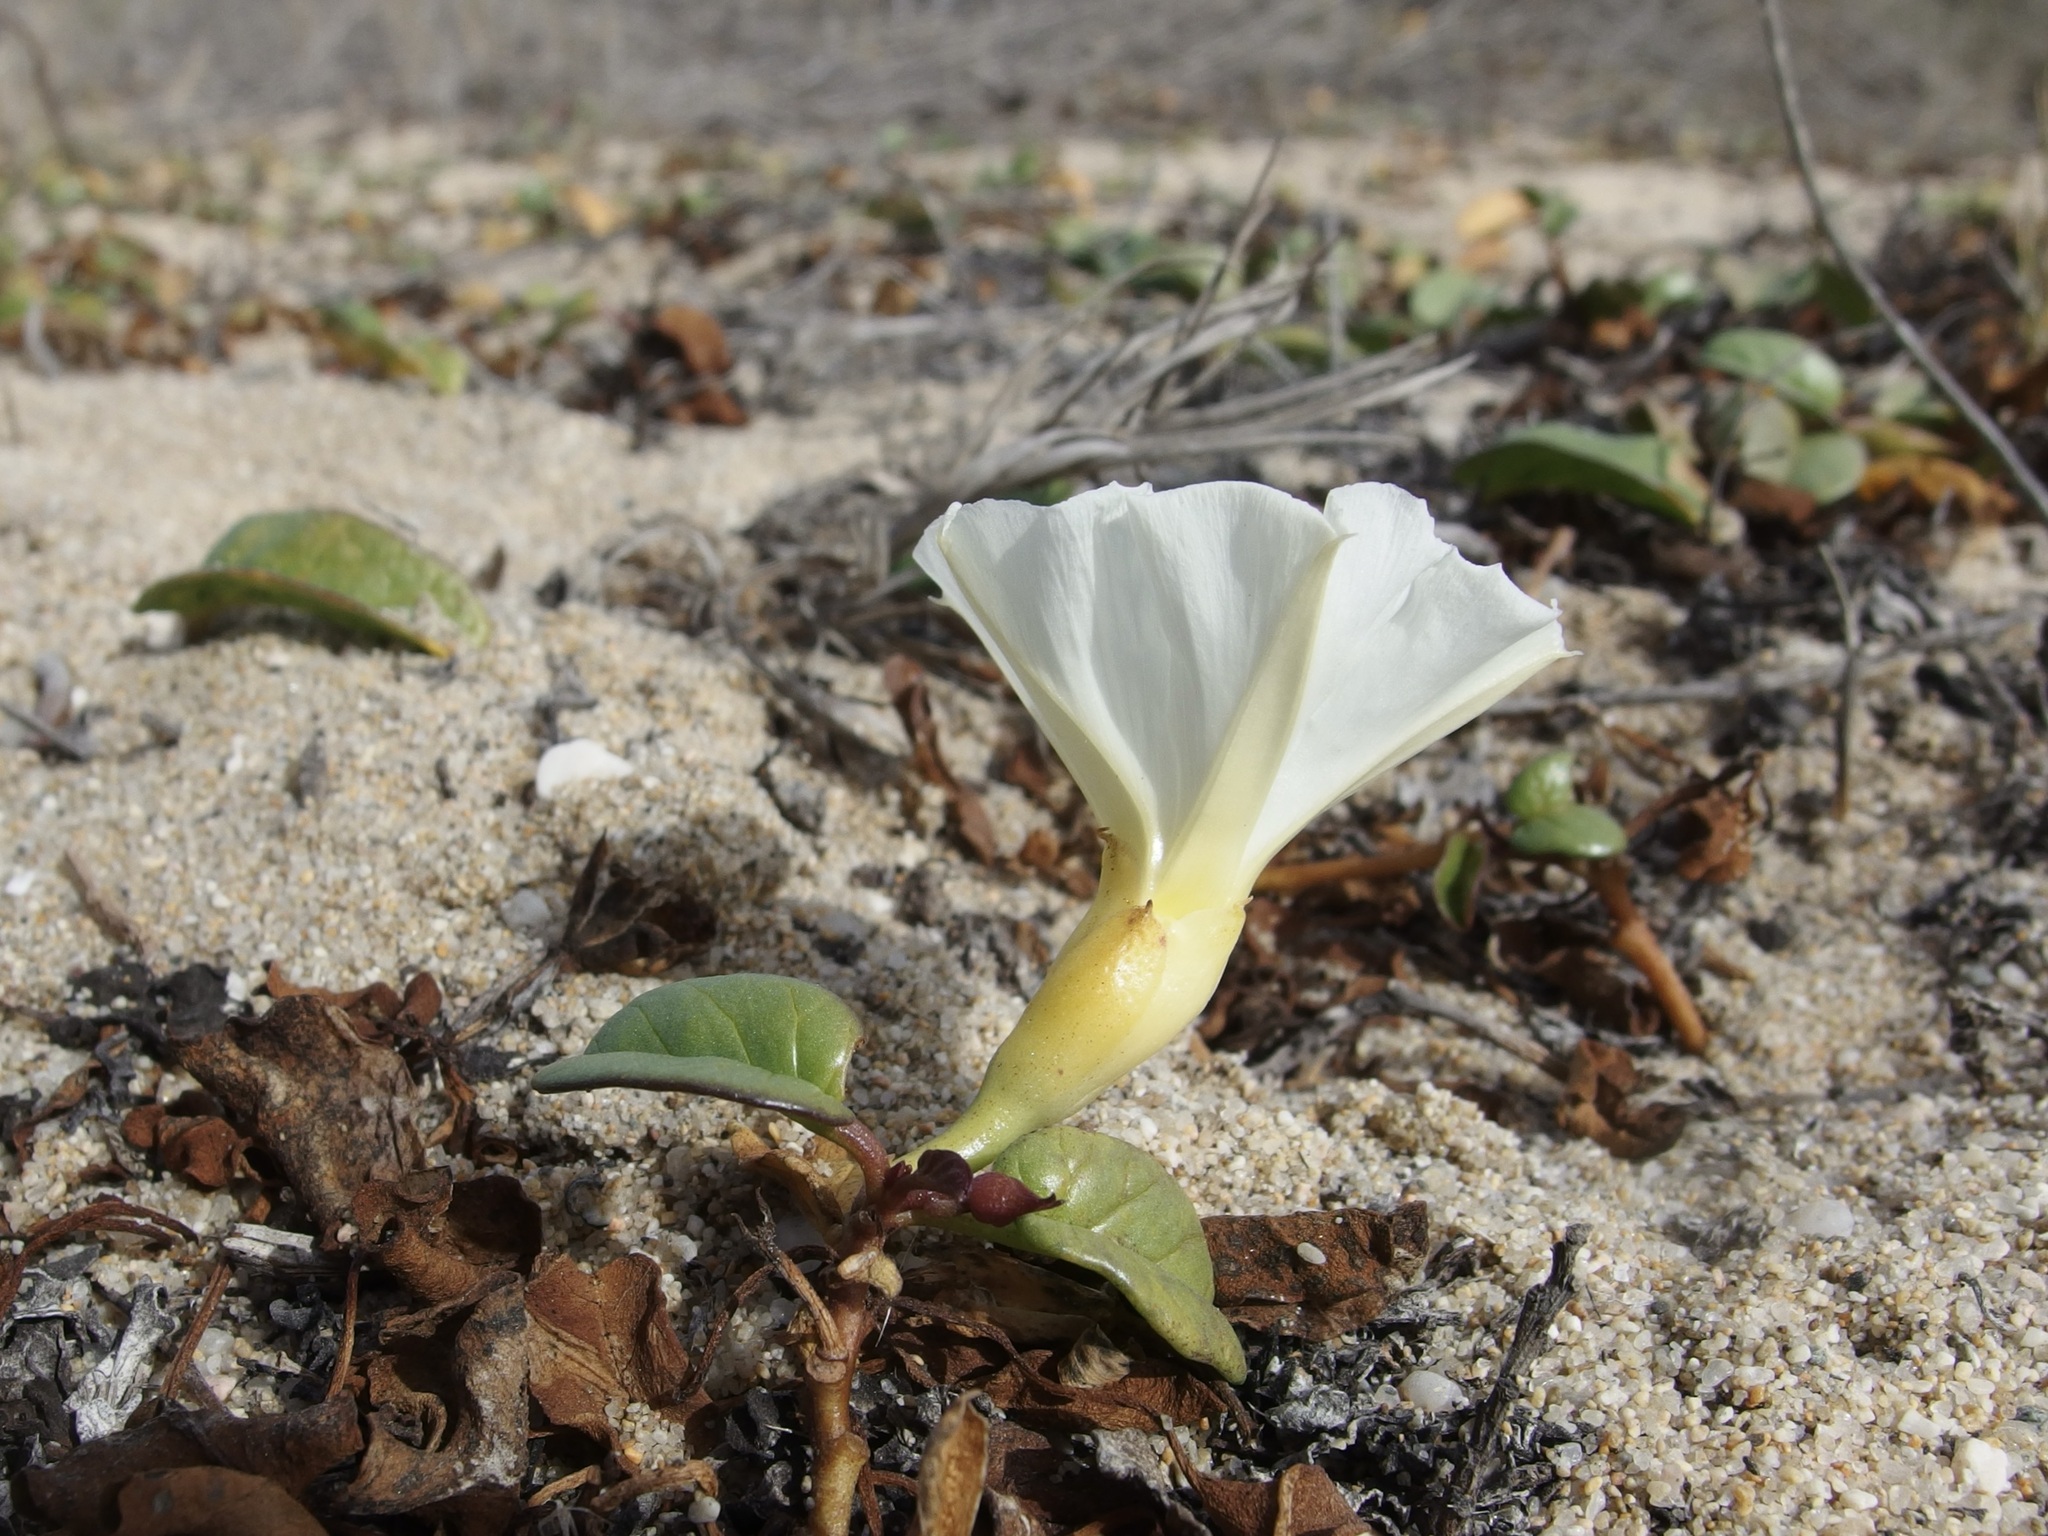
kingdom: Plantae
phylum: Tracheophyta
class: Magnoliopsida
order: Solanales
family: Convolvulaceae
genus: Ipomoea
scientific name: Ipomoea imperati
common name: Fiddle-leaf morning-glory
